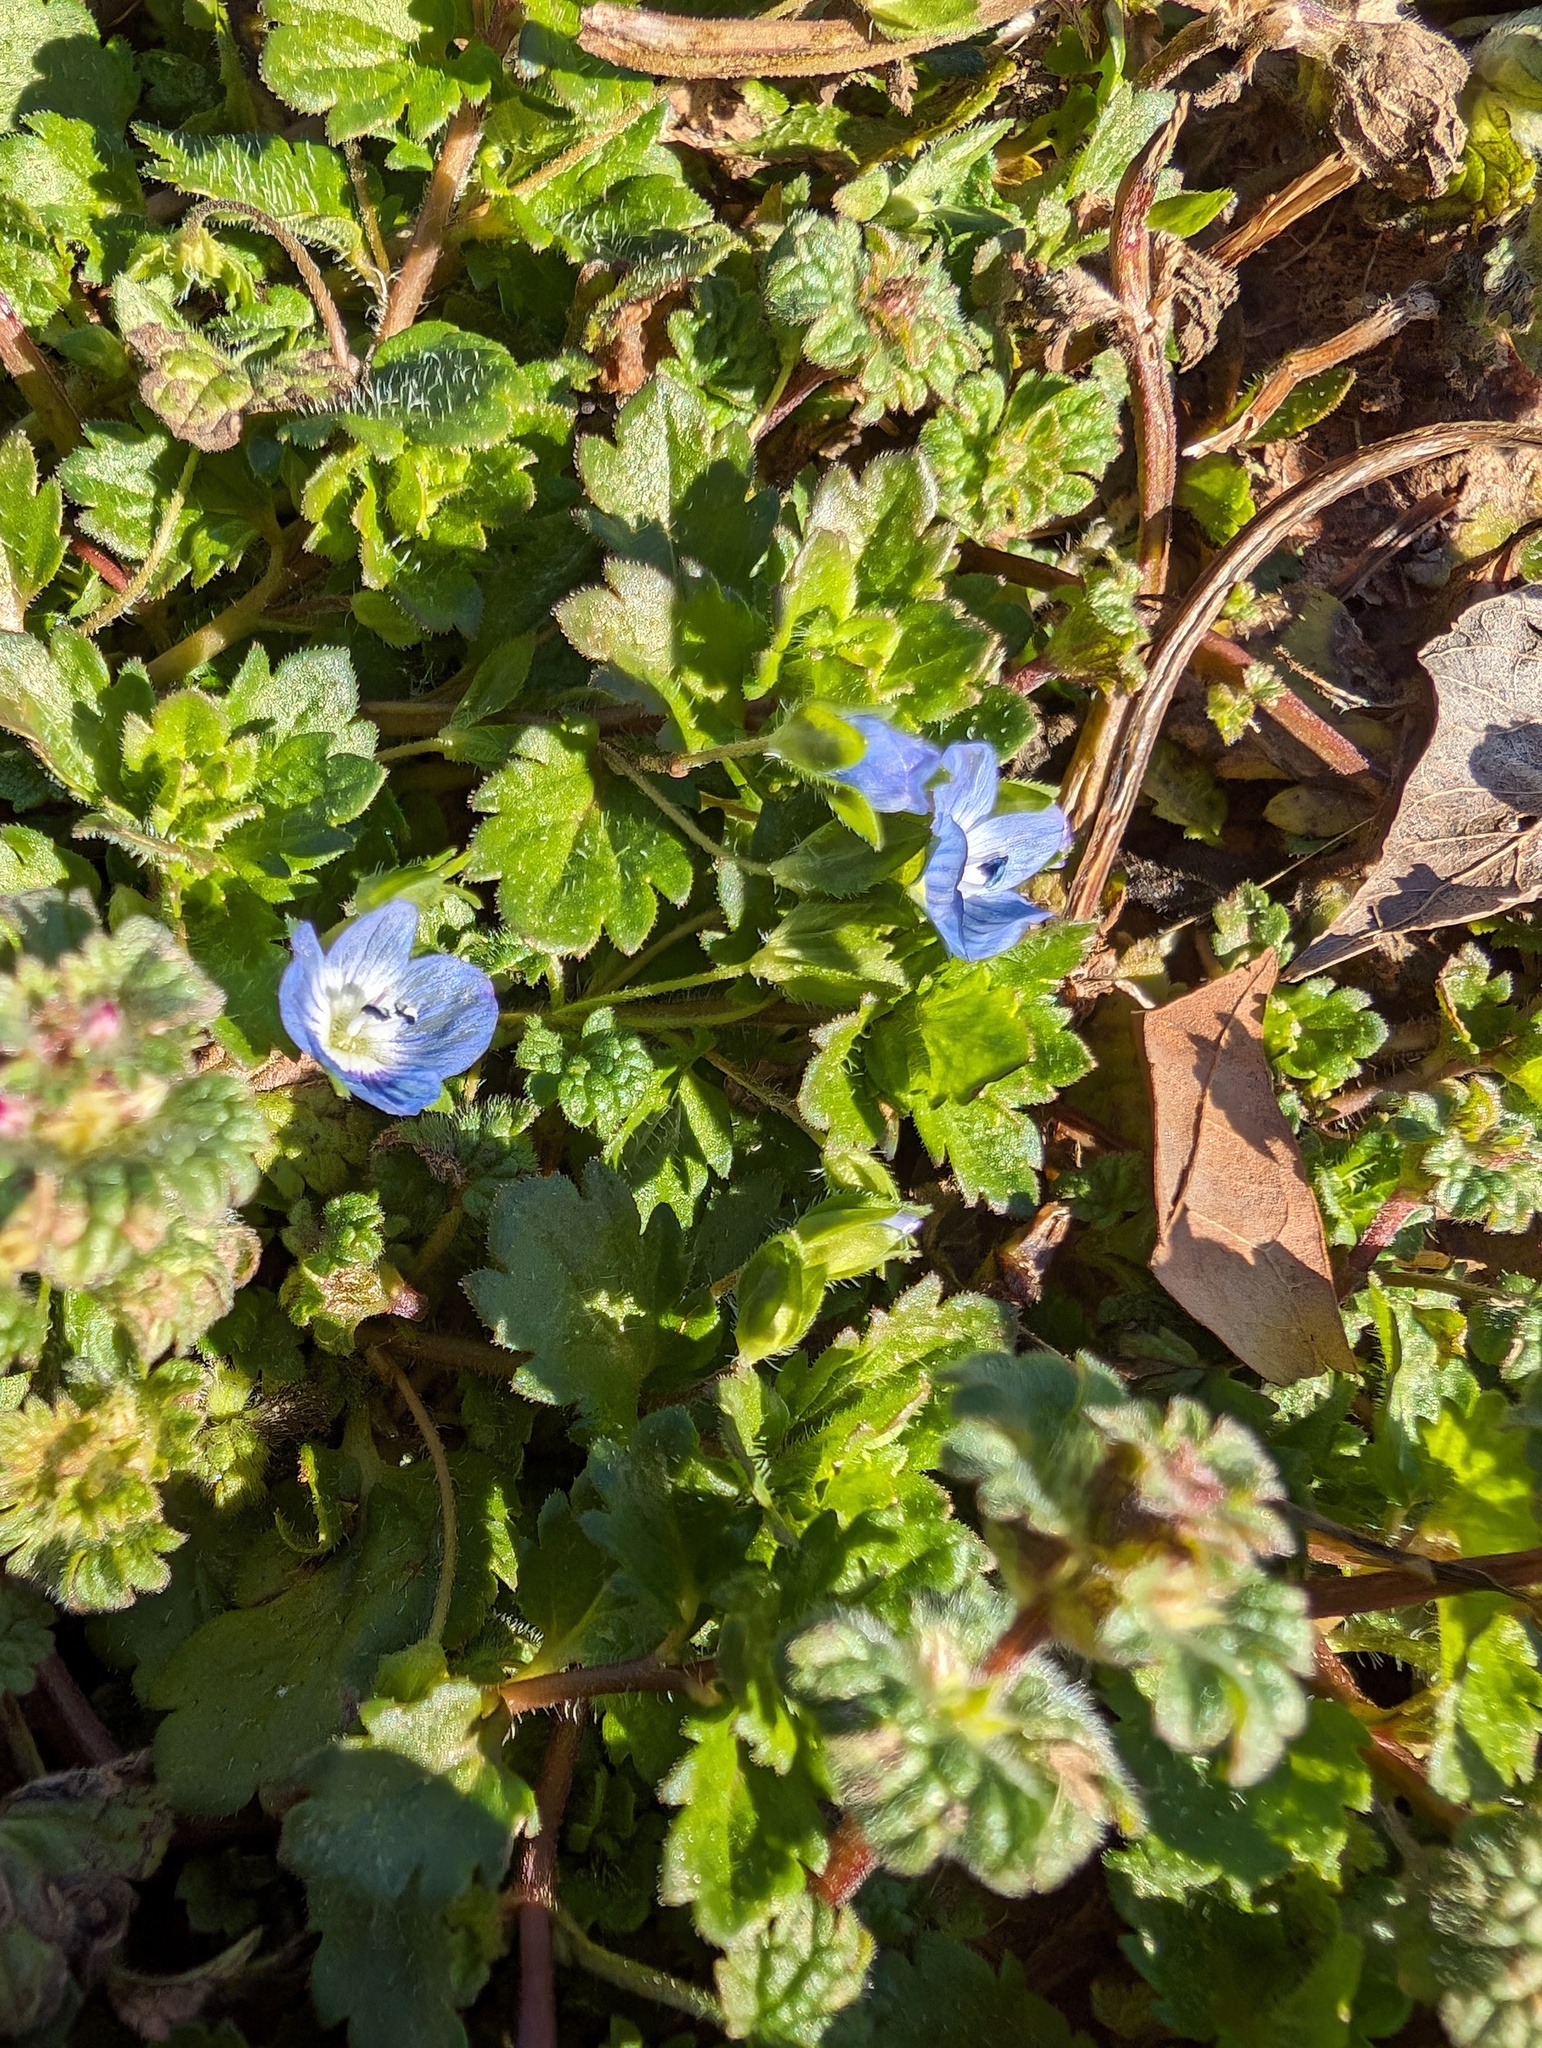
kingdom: Plantae
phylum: Tracheophyta
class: Magnoliopsida
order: Lamiales
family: Plantaginaceae
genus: Veronica
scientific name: Veronica persica
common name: Common field-speedwell
